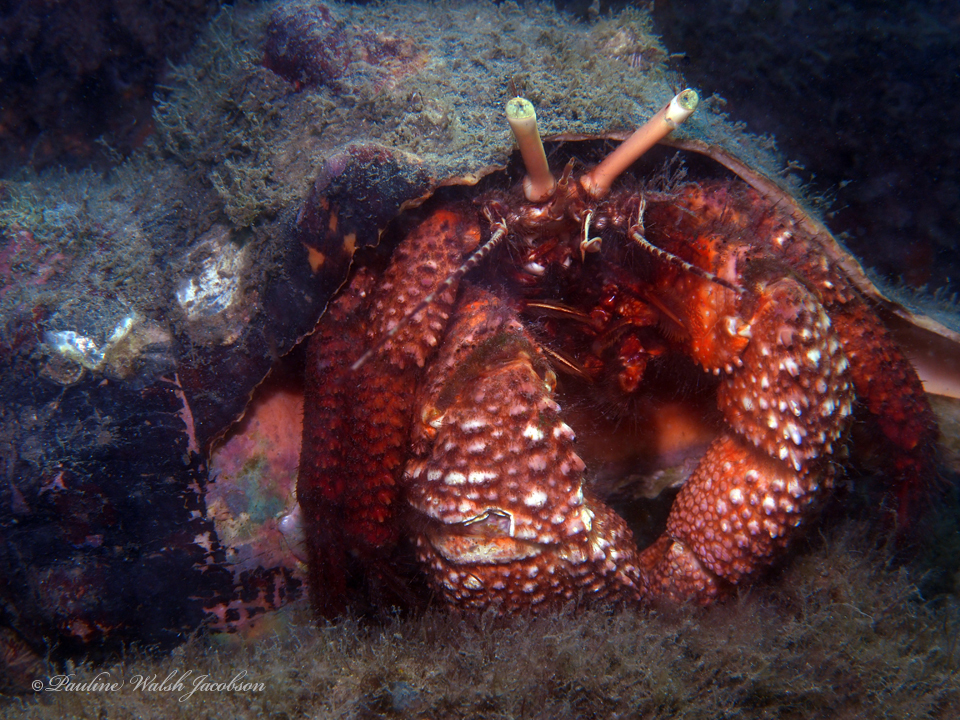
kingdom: Animalia
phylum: Arthropoda
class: Malacostraca
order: Decapoda
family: Diogenidae
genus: Petrochirus
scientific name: Petrochirus diogenes
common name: Giant hermit crab
